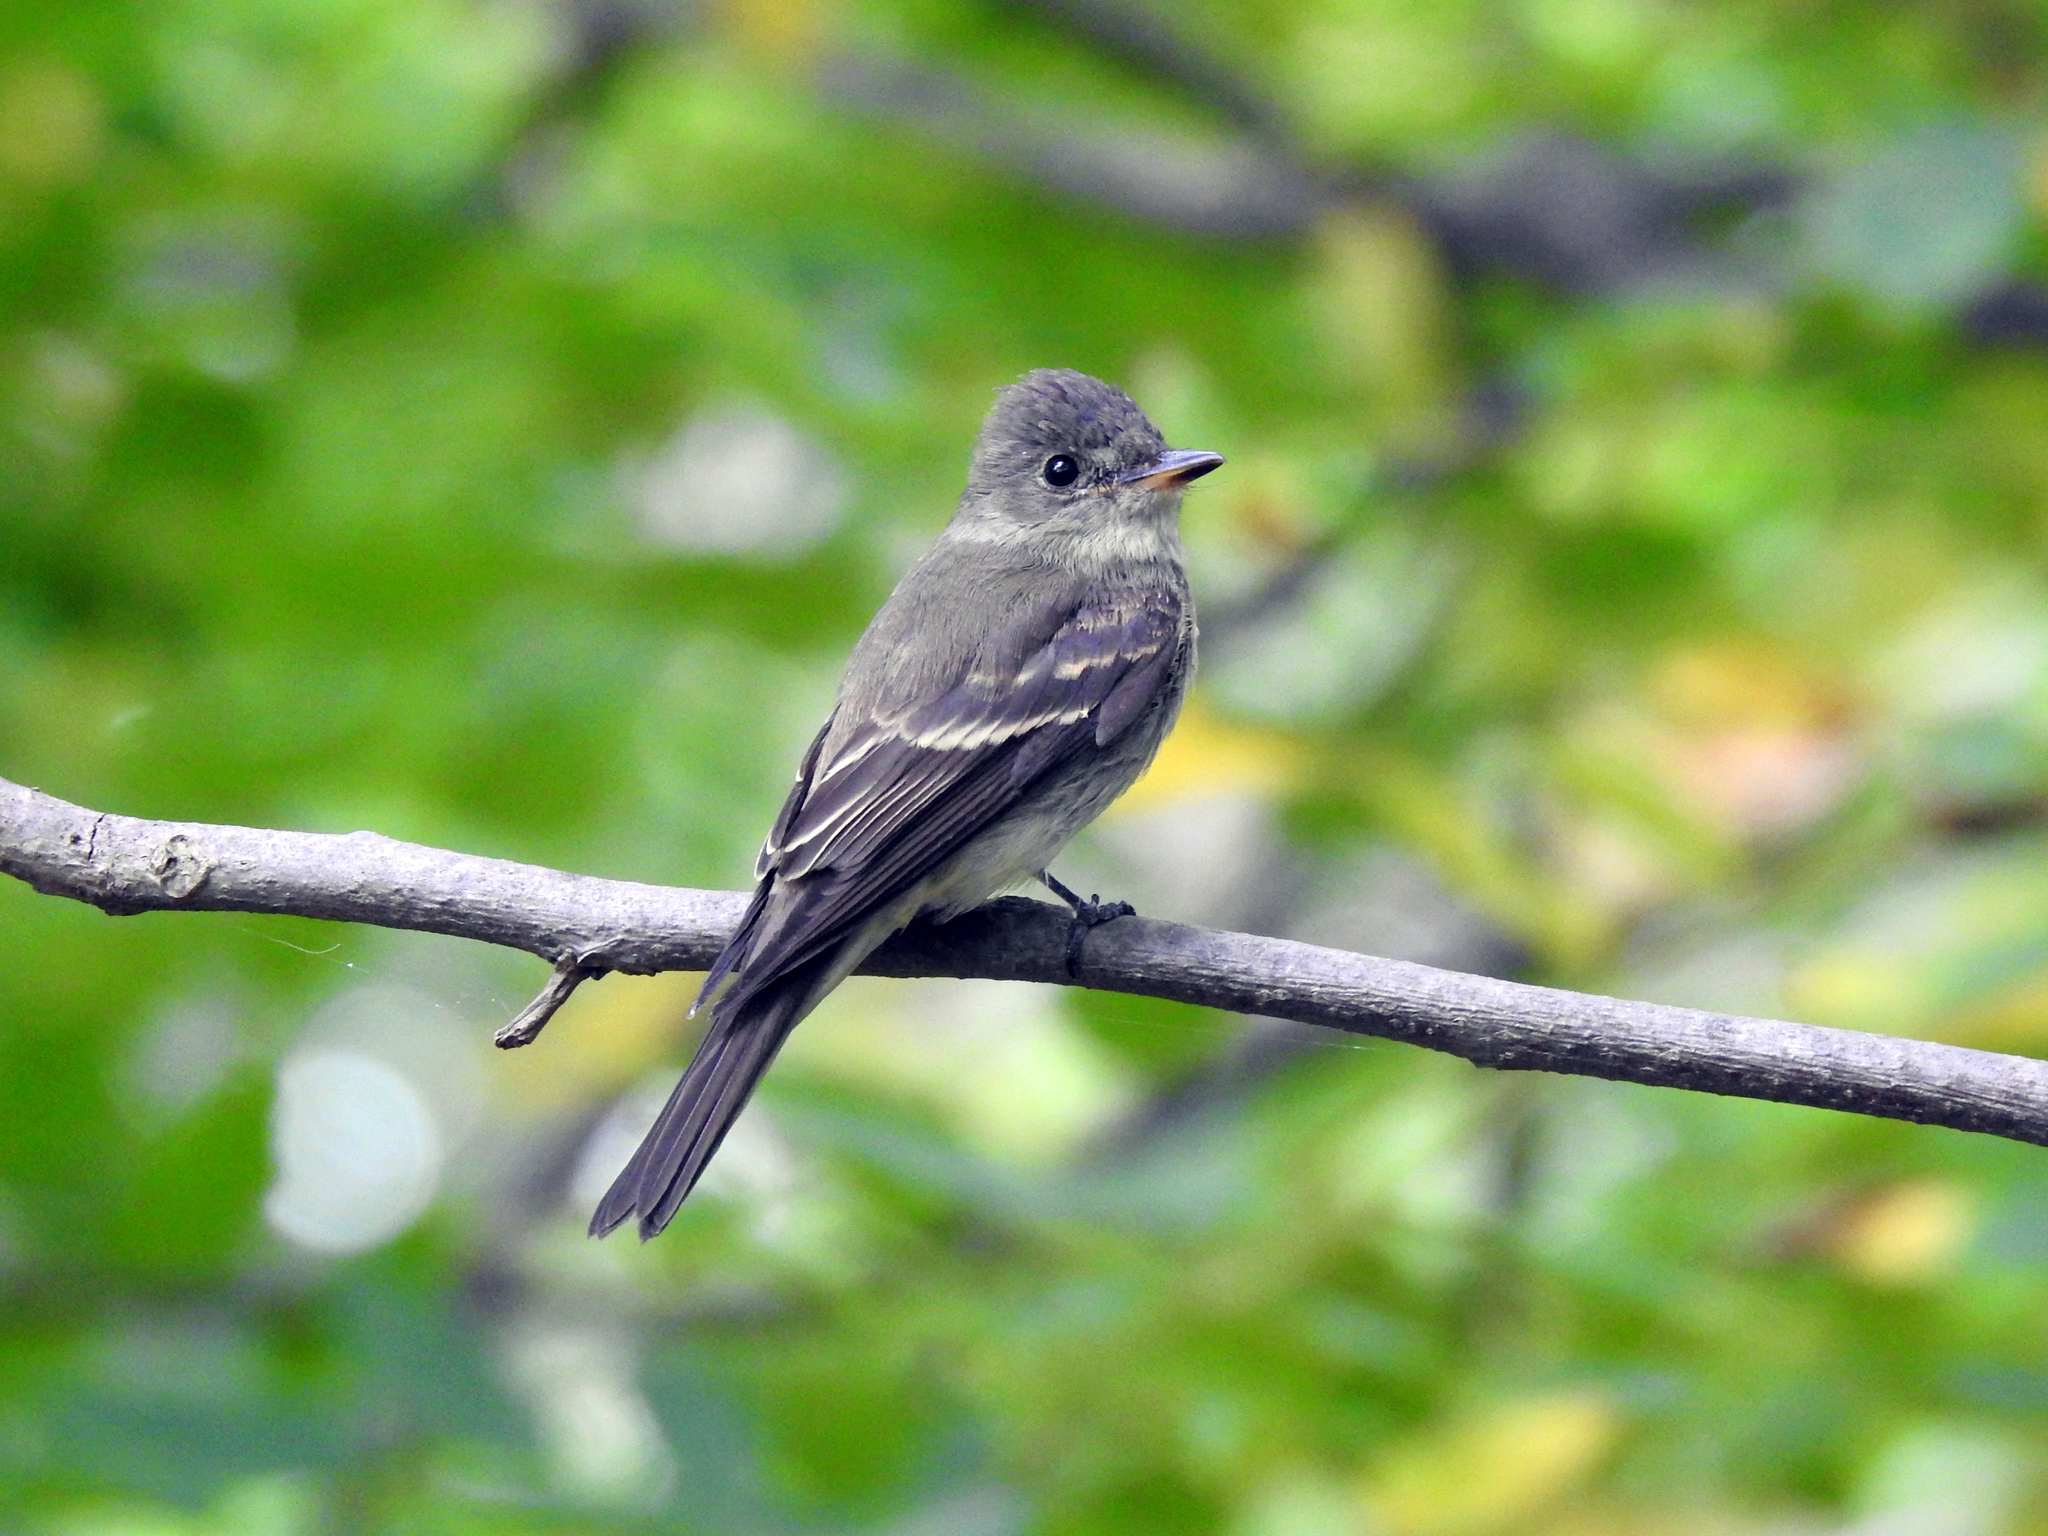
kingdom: Animalia
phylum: Chordata
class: Aves
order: Passeriformes
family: Tyrannidae
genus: Contopus
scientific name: Contopus virens
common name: Eastern wood-pewee
